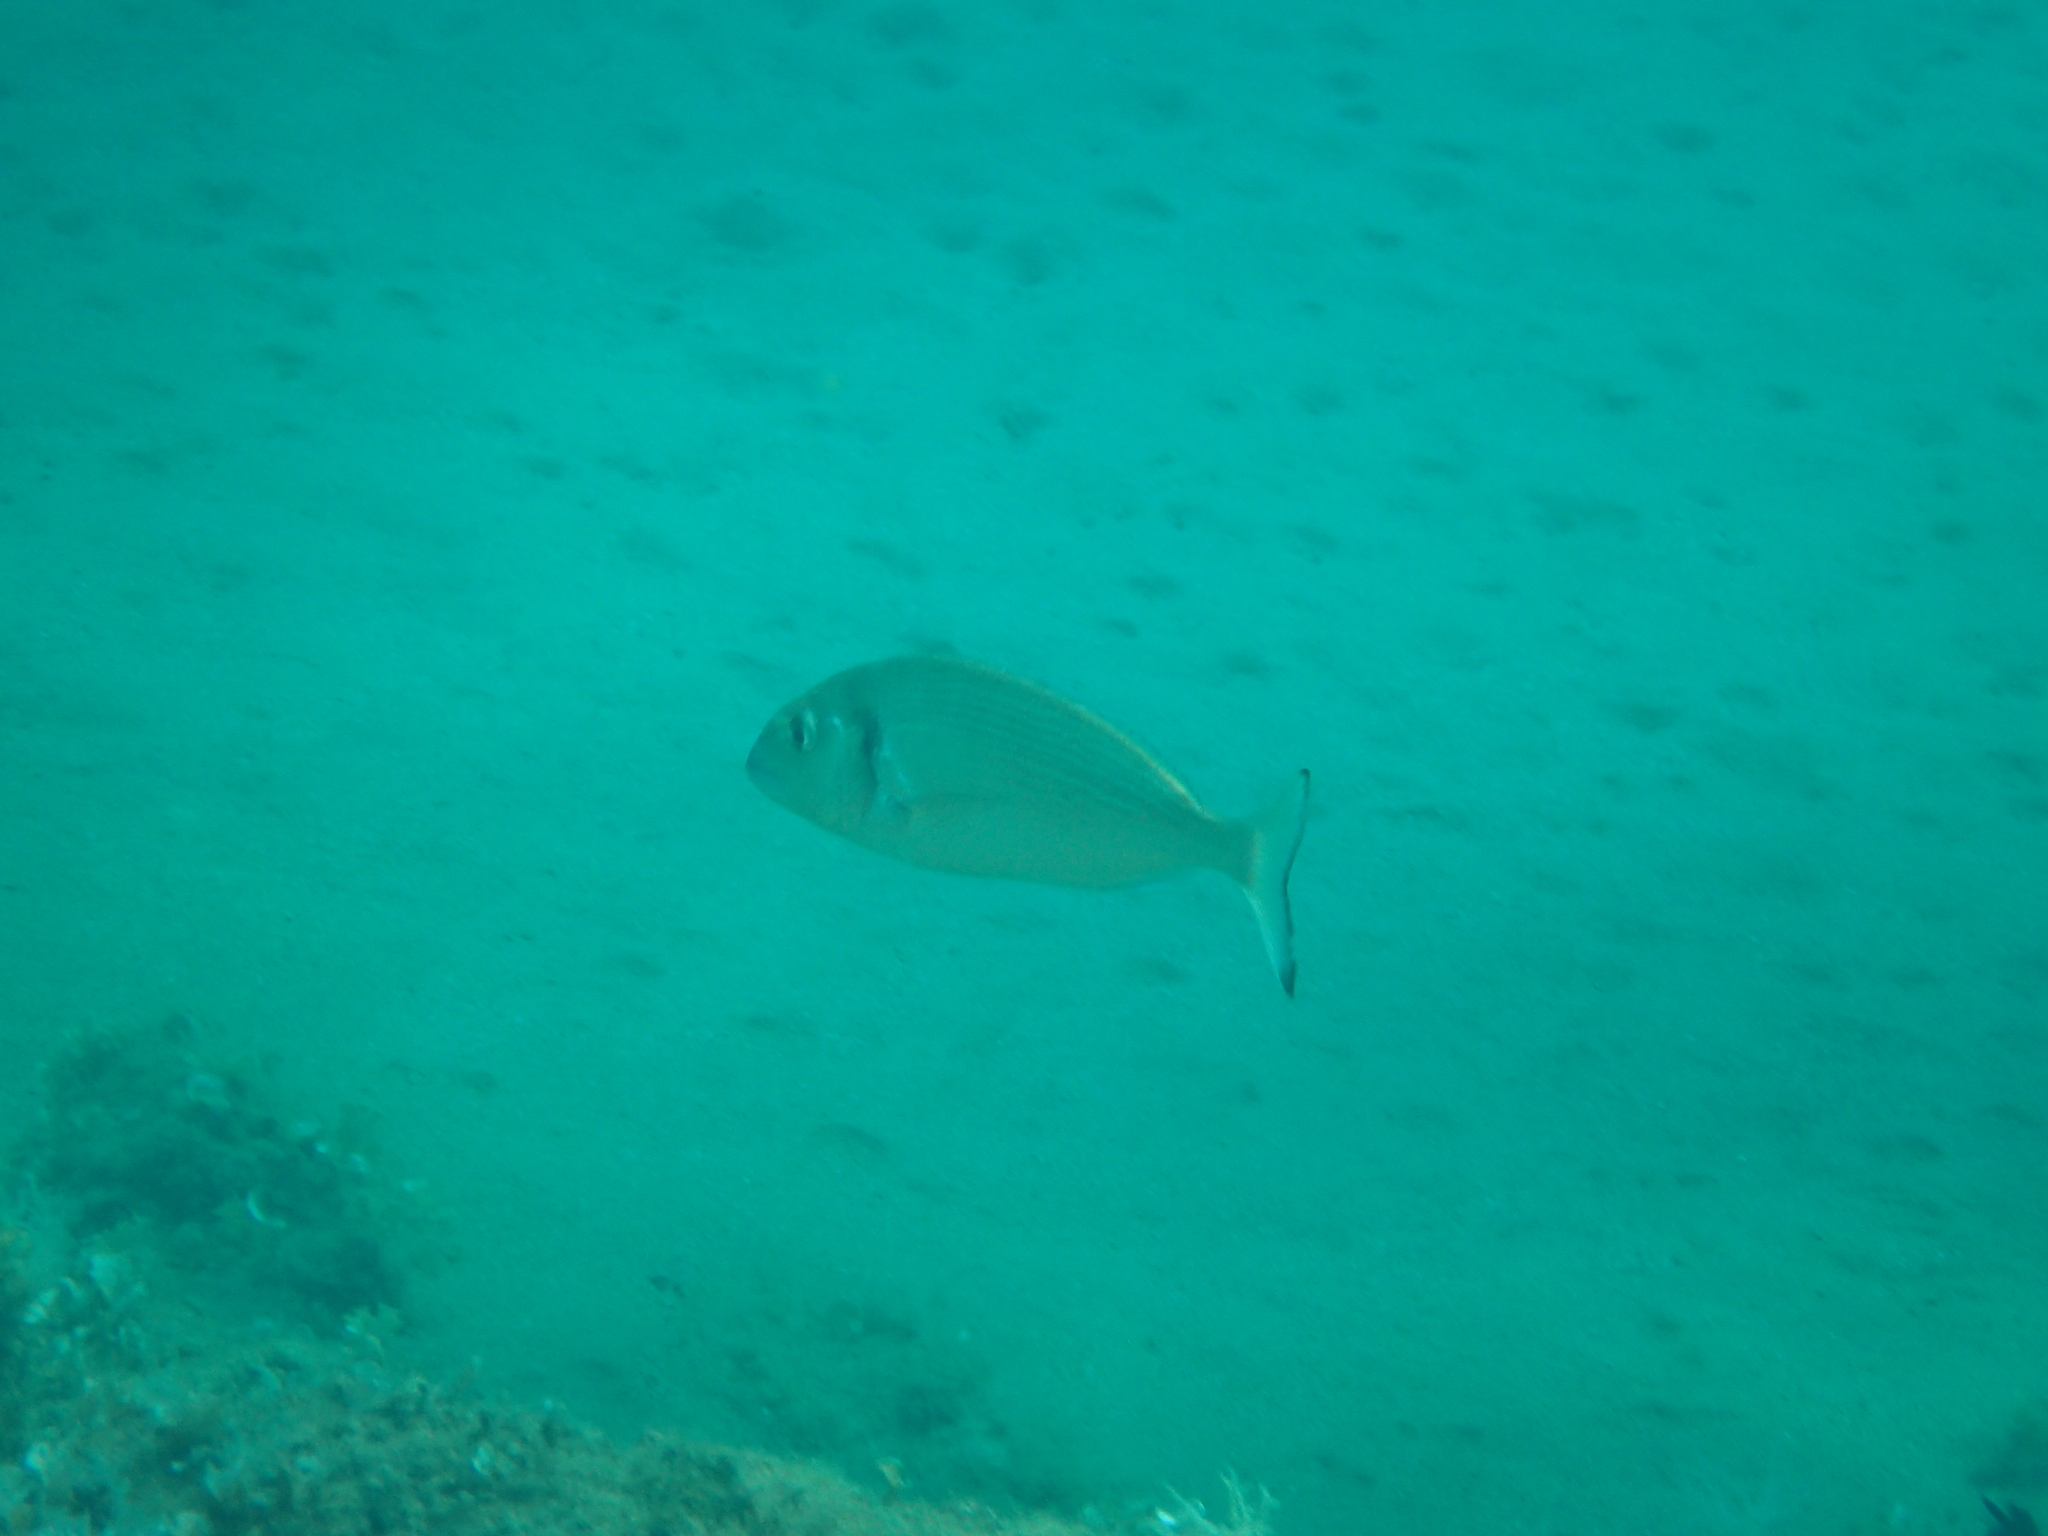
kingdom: Animalia
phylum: Chordata
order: Perciformes
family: Sparidae
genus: Sparus
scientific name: Sparus aurata
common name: Gilthead
